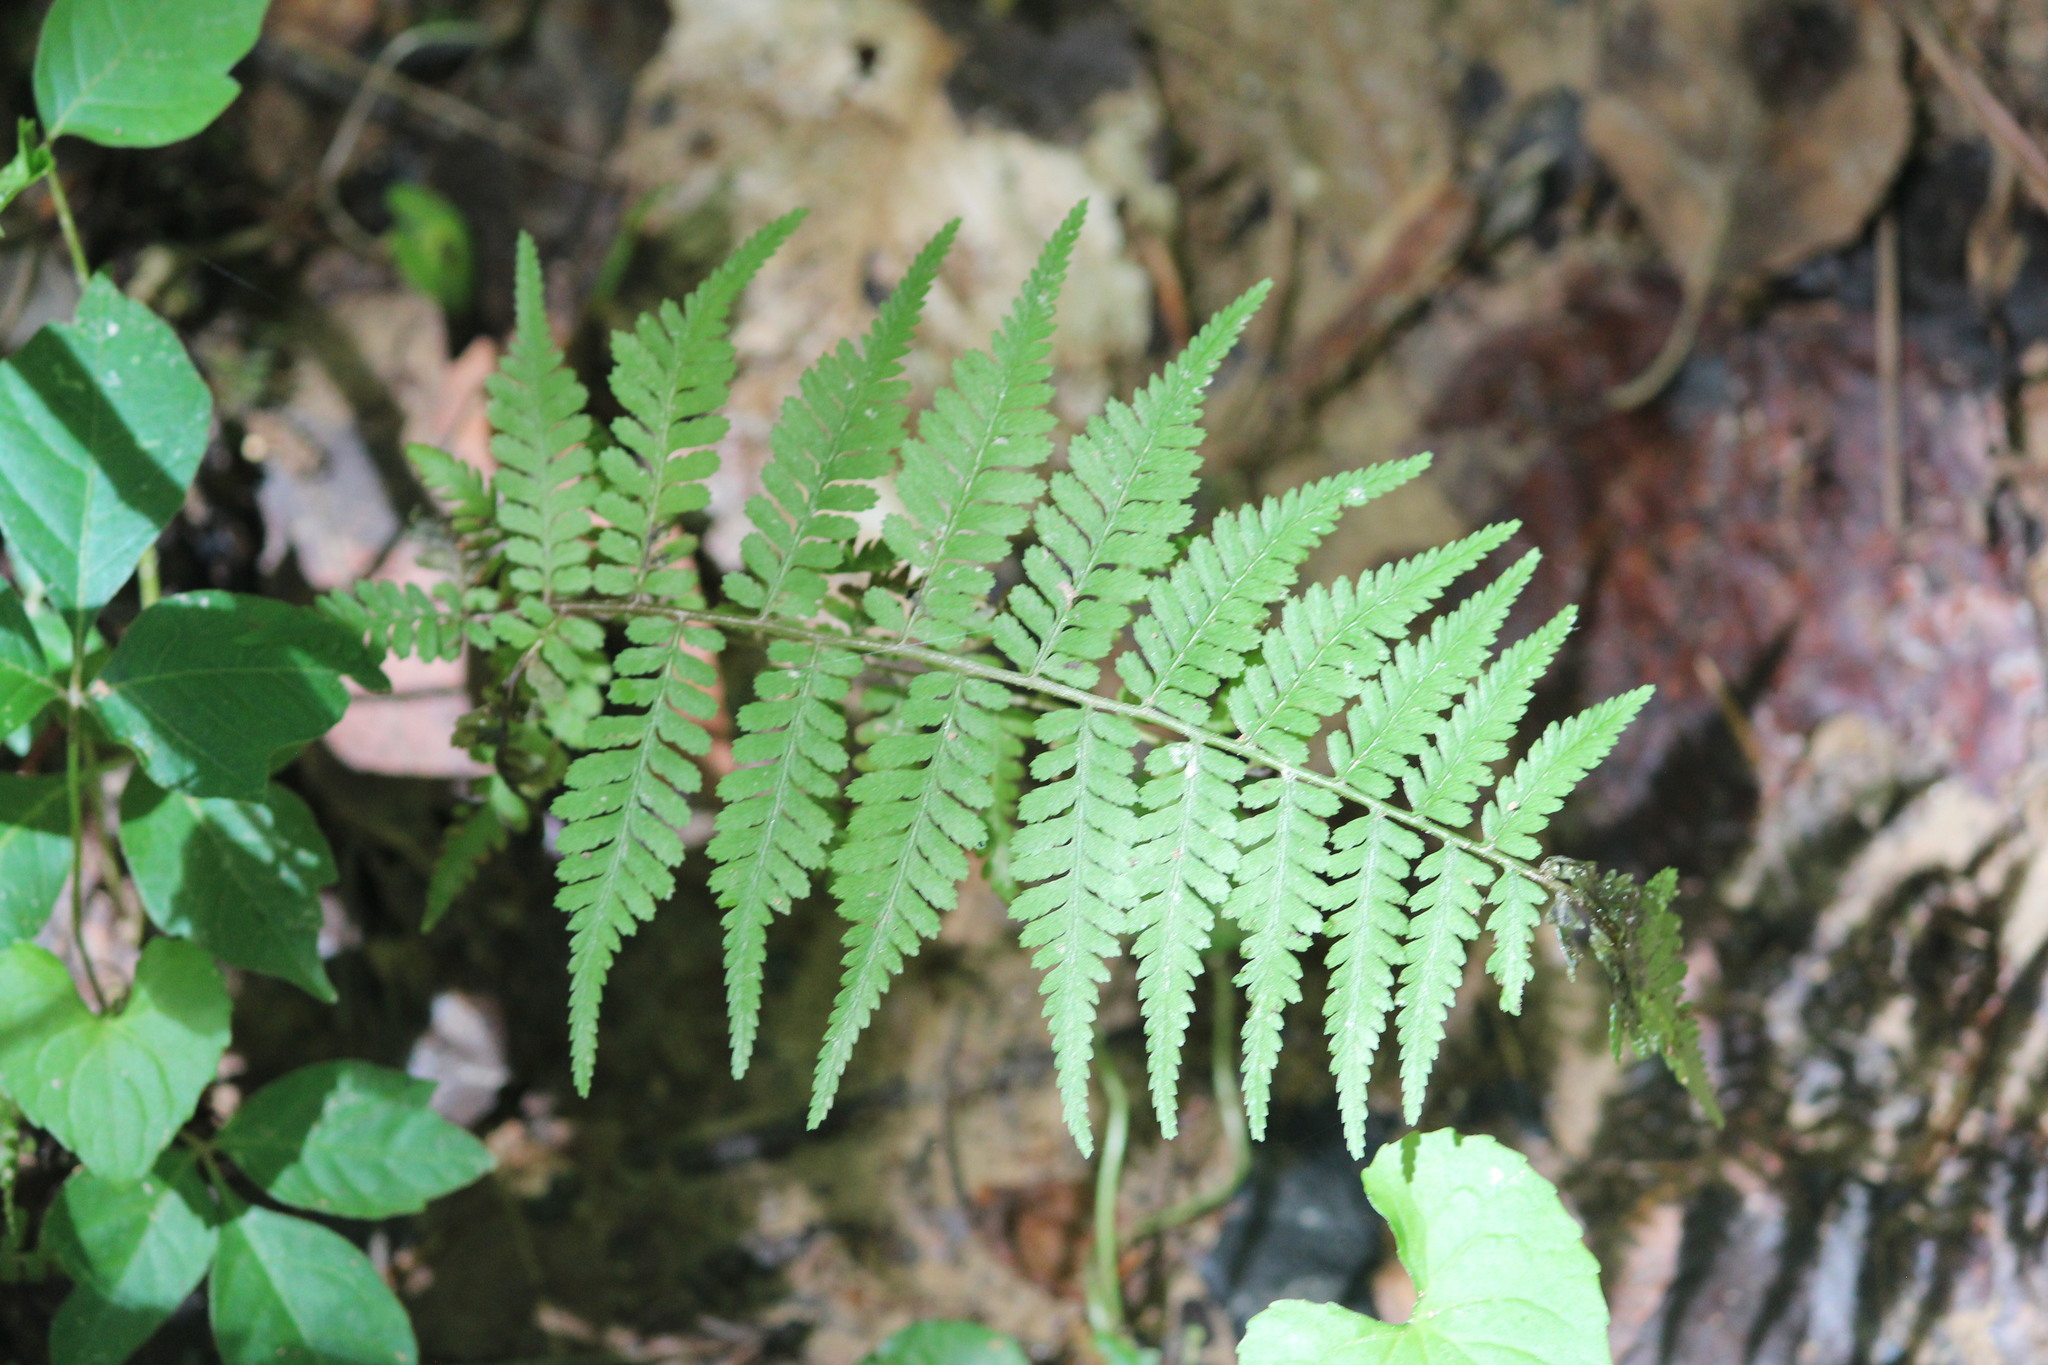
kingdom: Plantae
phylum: Tracheophyta
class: Polypodiopsida
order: Polypodiales
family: Athyriaceae
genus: Athyrium
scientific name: Athyrium asplenioides
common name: Southern lady fern
